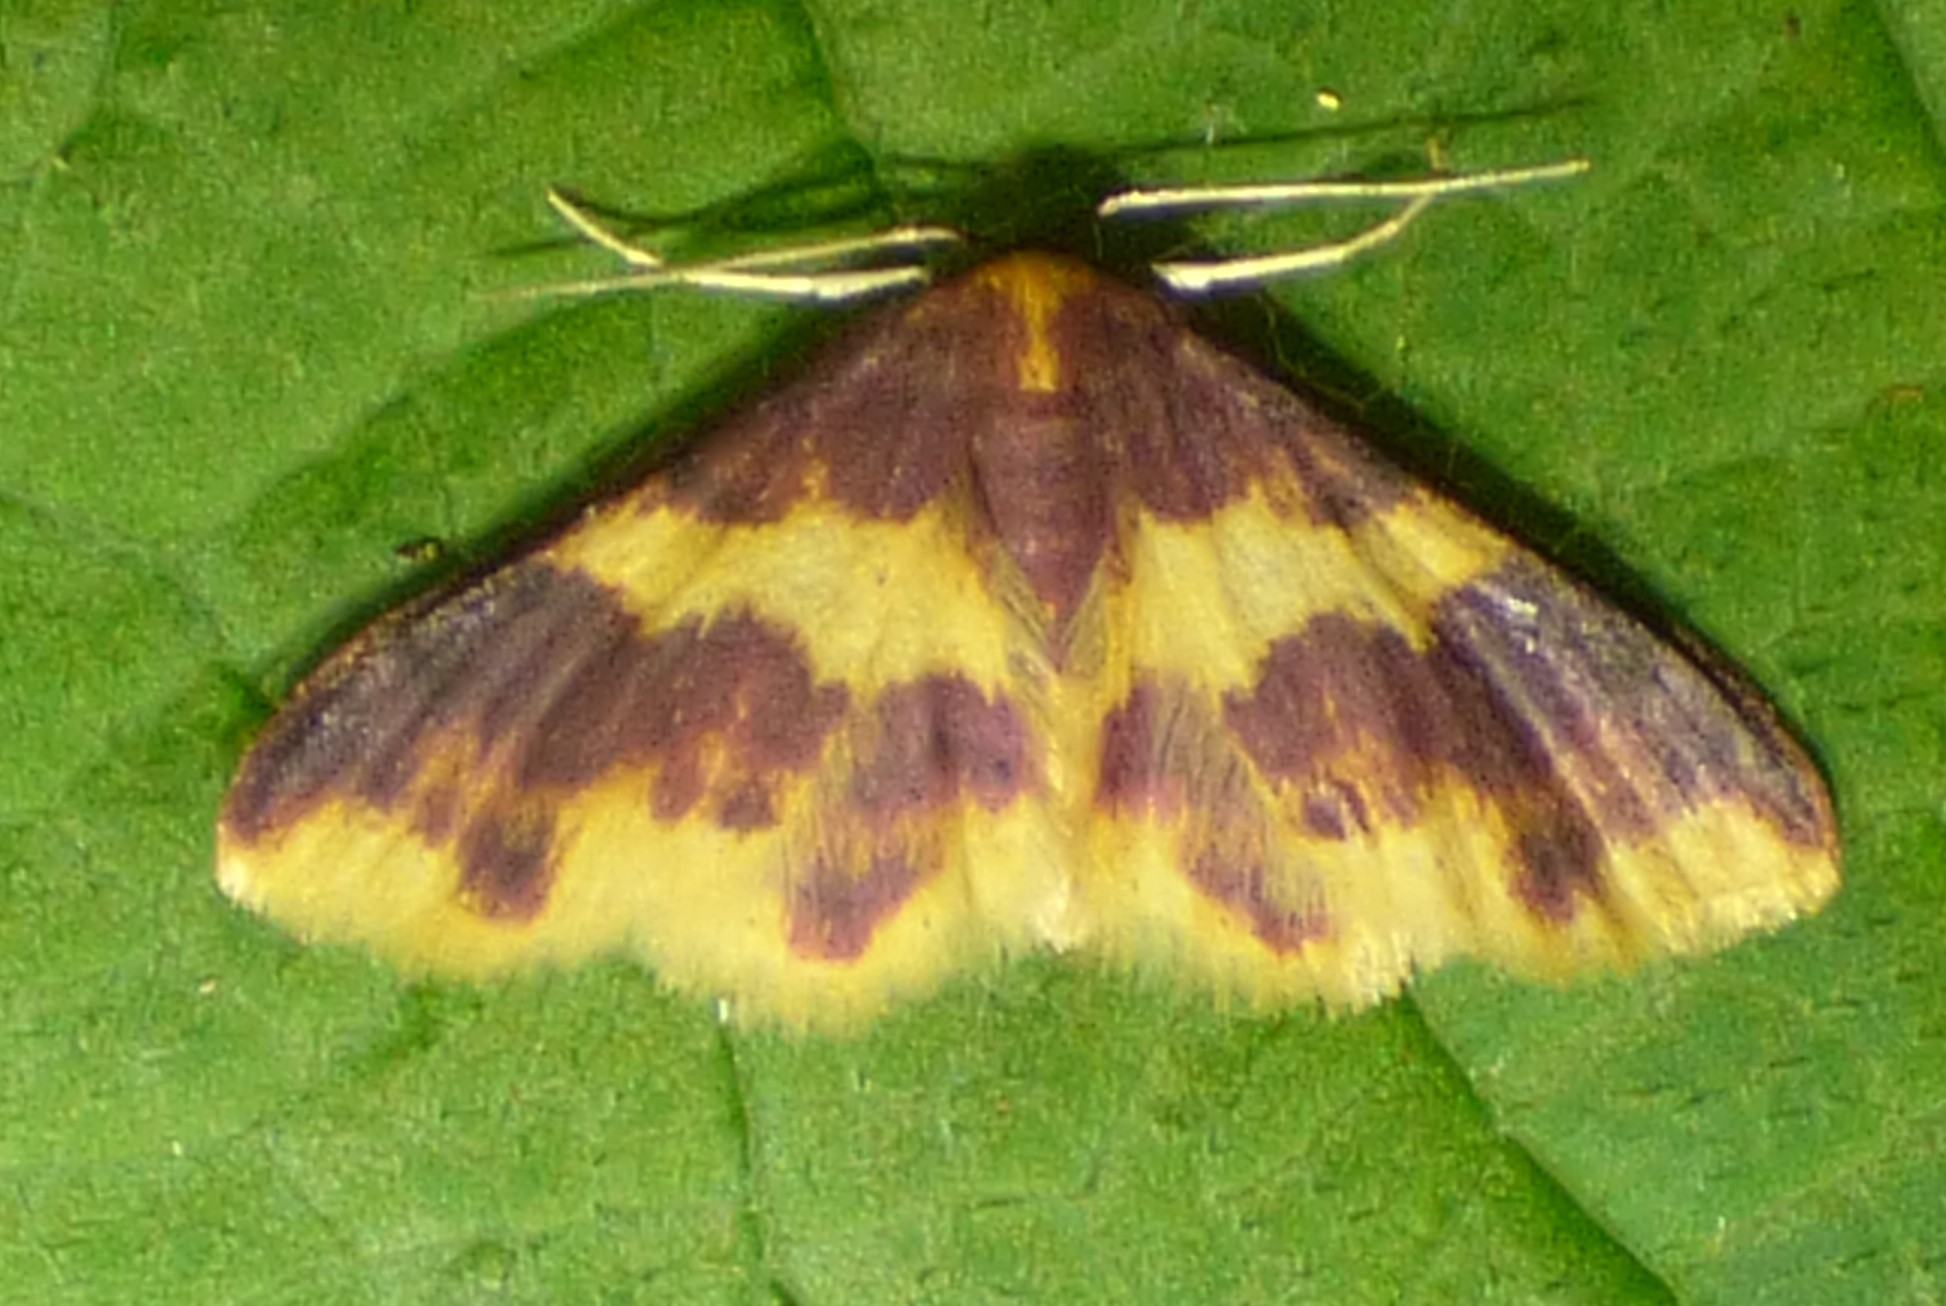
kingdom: Animalia
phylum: Arthropoda
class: Insecta
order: Lepidoptera
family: Geometridae
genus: Lophosis
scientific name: Lophosis labeculata
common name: Stained lophosis moth
